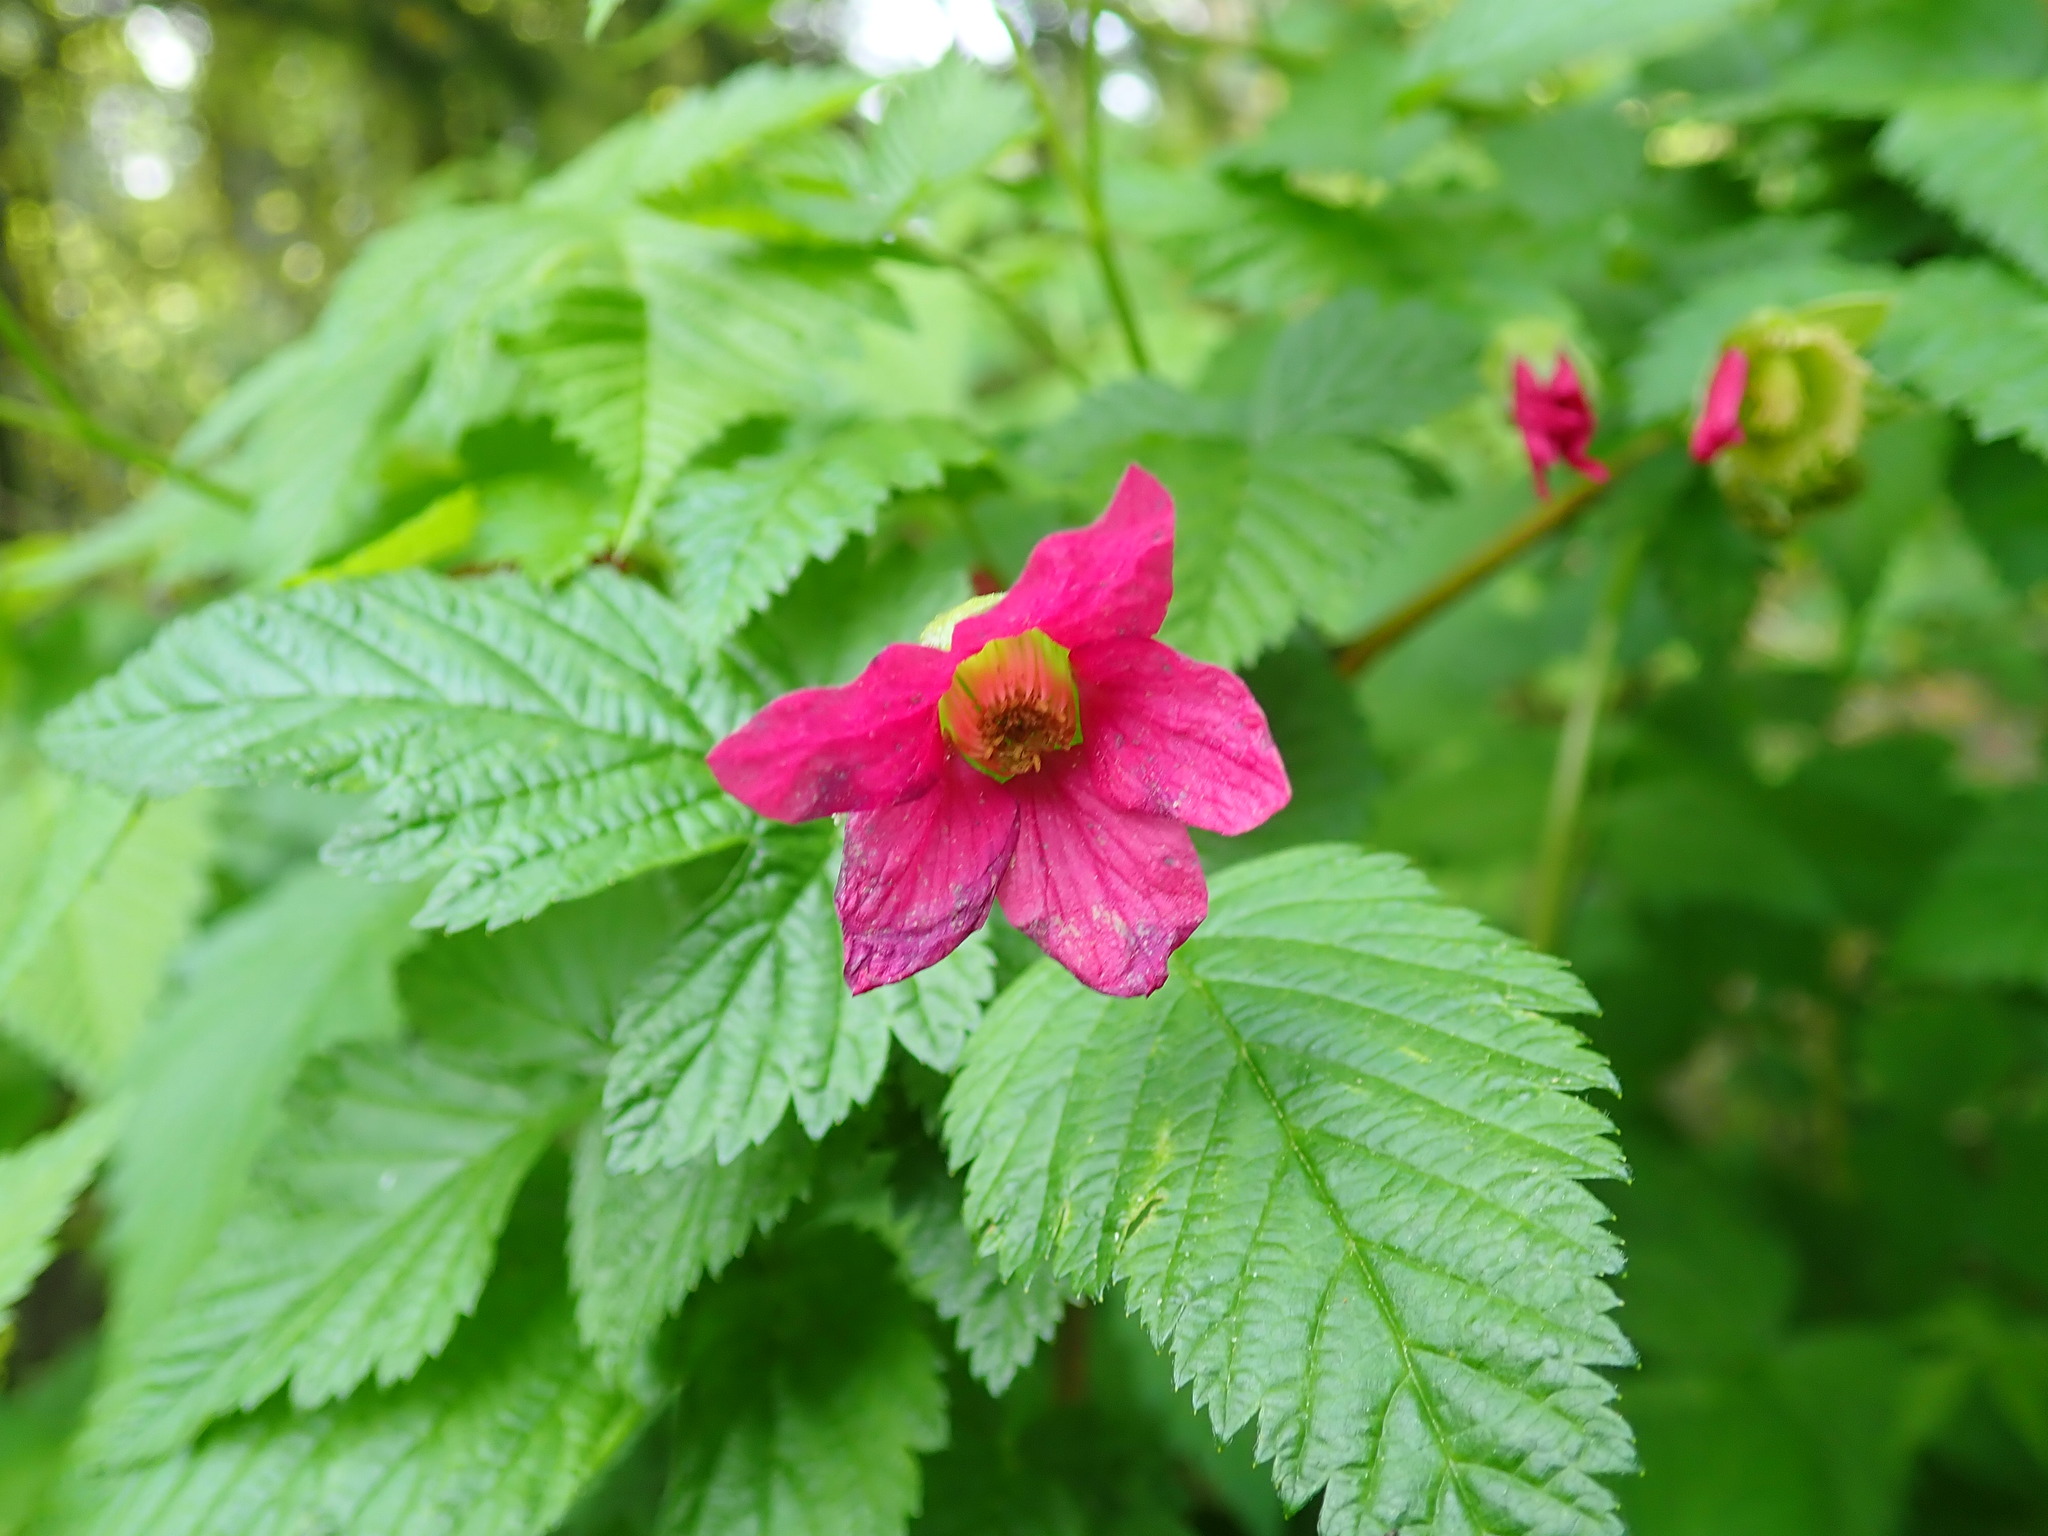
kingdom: Plantae
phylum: Tracheophyta
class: Magnoliopsida
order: Rosales
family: Rosaceae
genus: Rubus
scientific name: Rubus spectabilis
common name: Salmonberry
